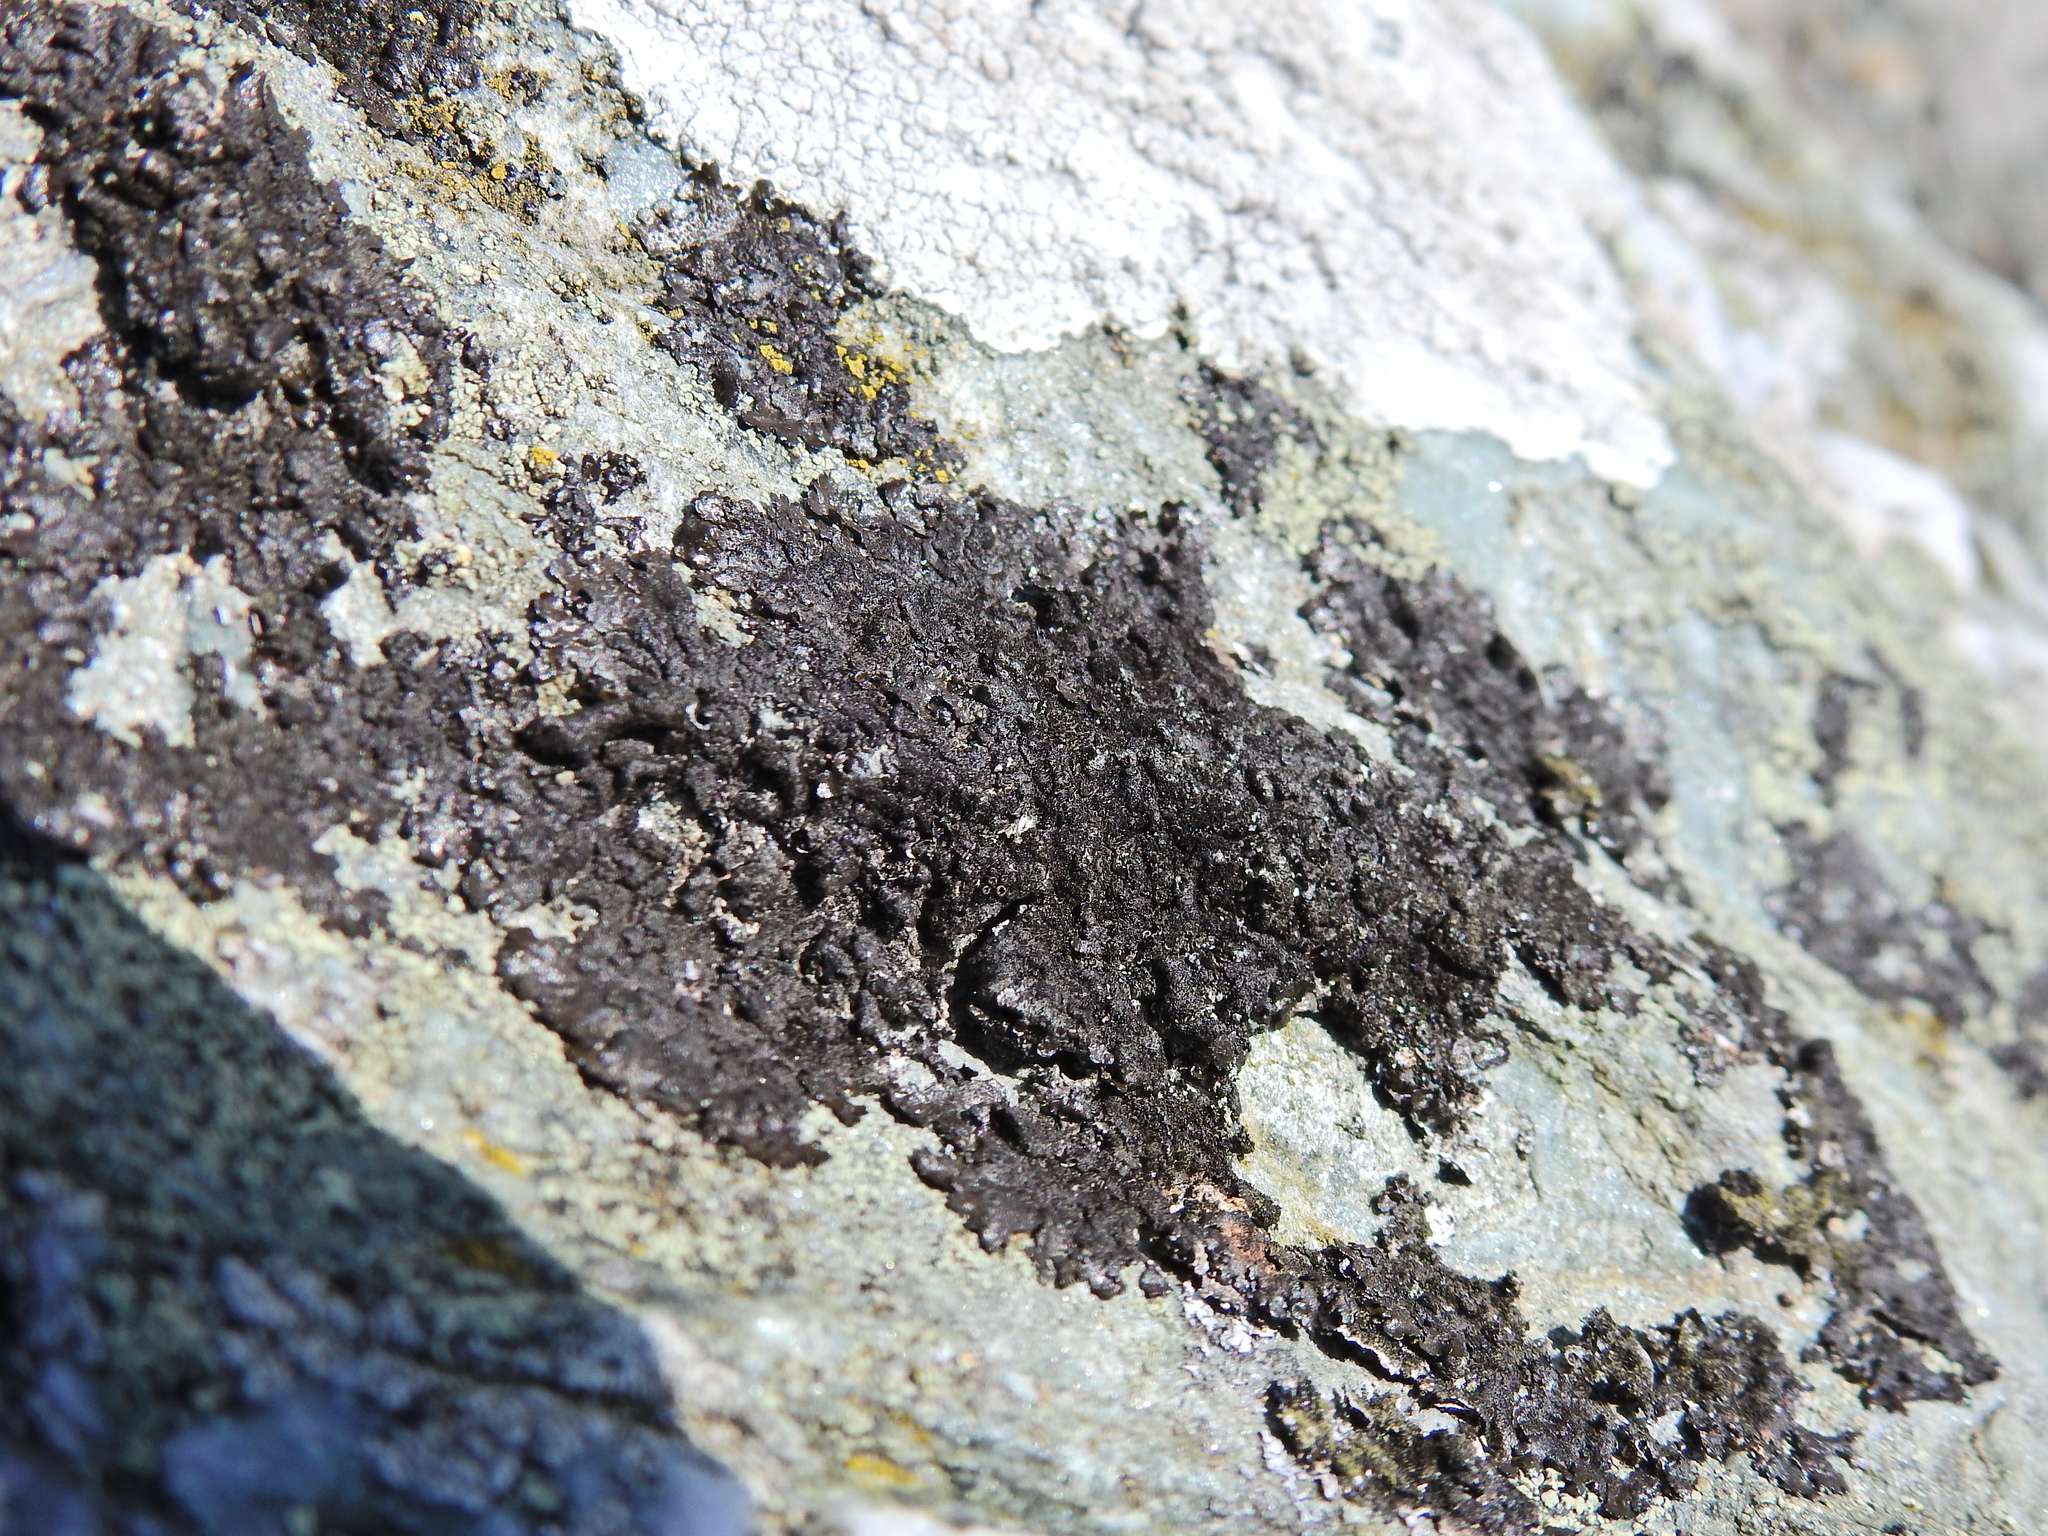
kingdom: Fungi
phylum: Ascomycota
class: Lecanoromycetes
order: Lecanorales
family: Parmeliaceae
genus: Melanelixia
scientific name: Melanelixia fuliginosa
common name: Shiny camouflage lichen
